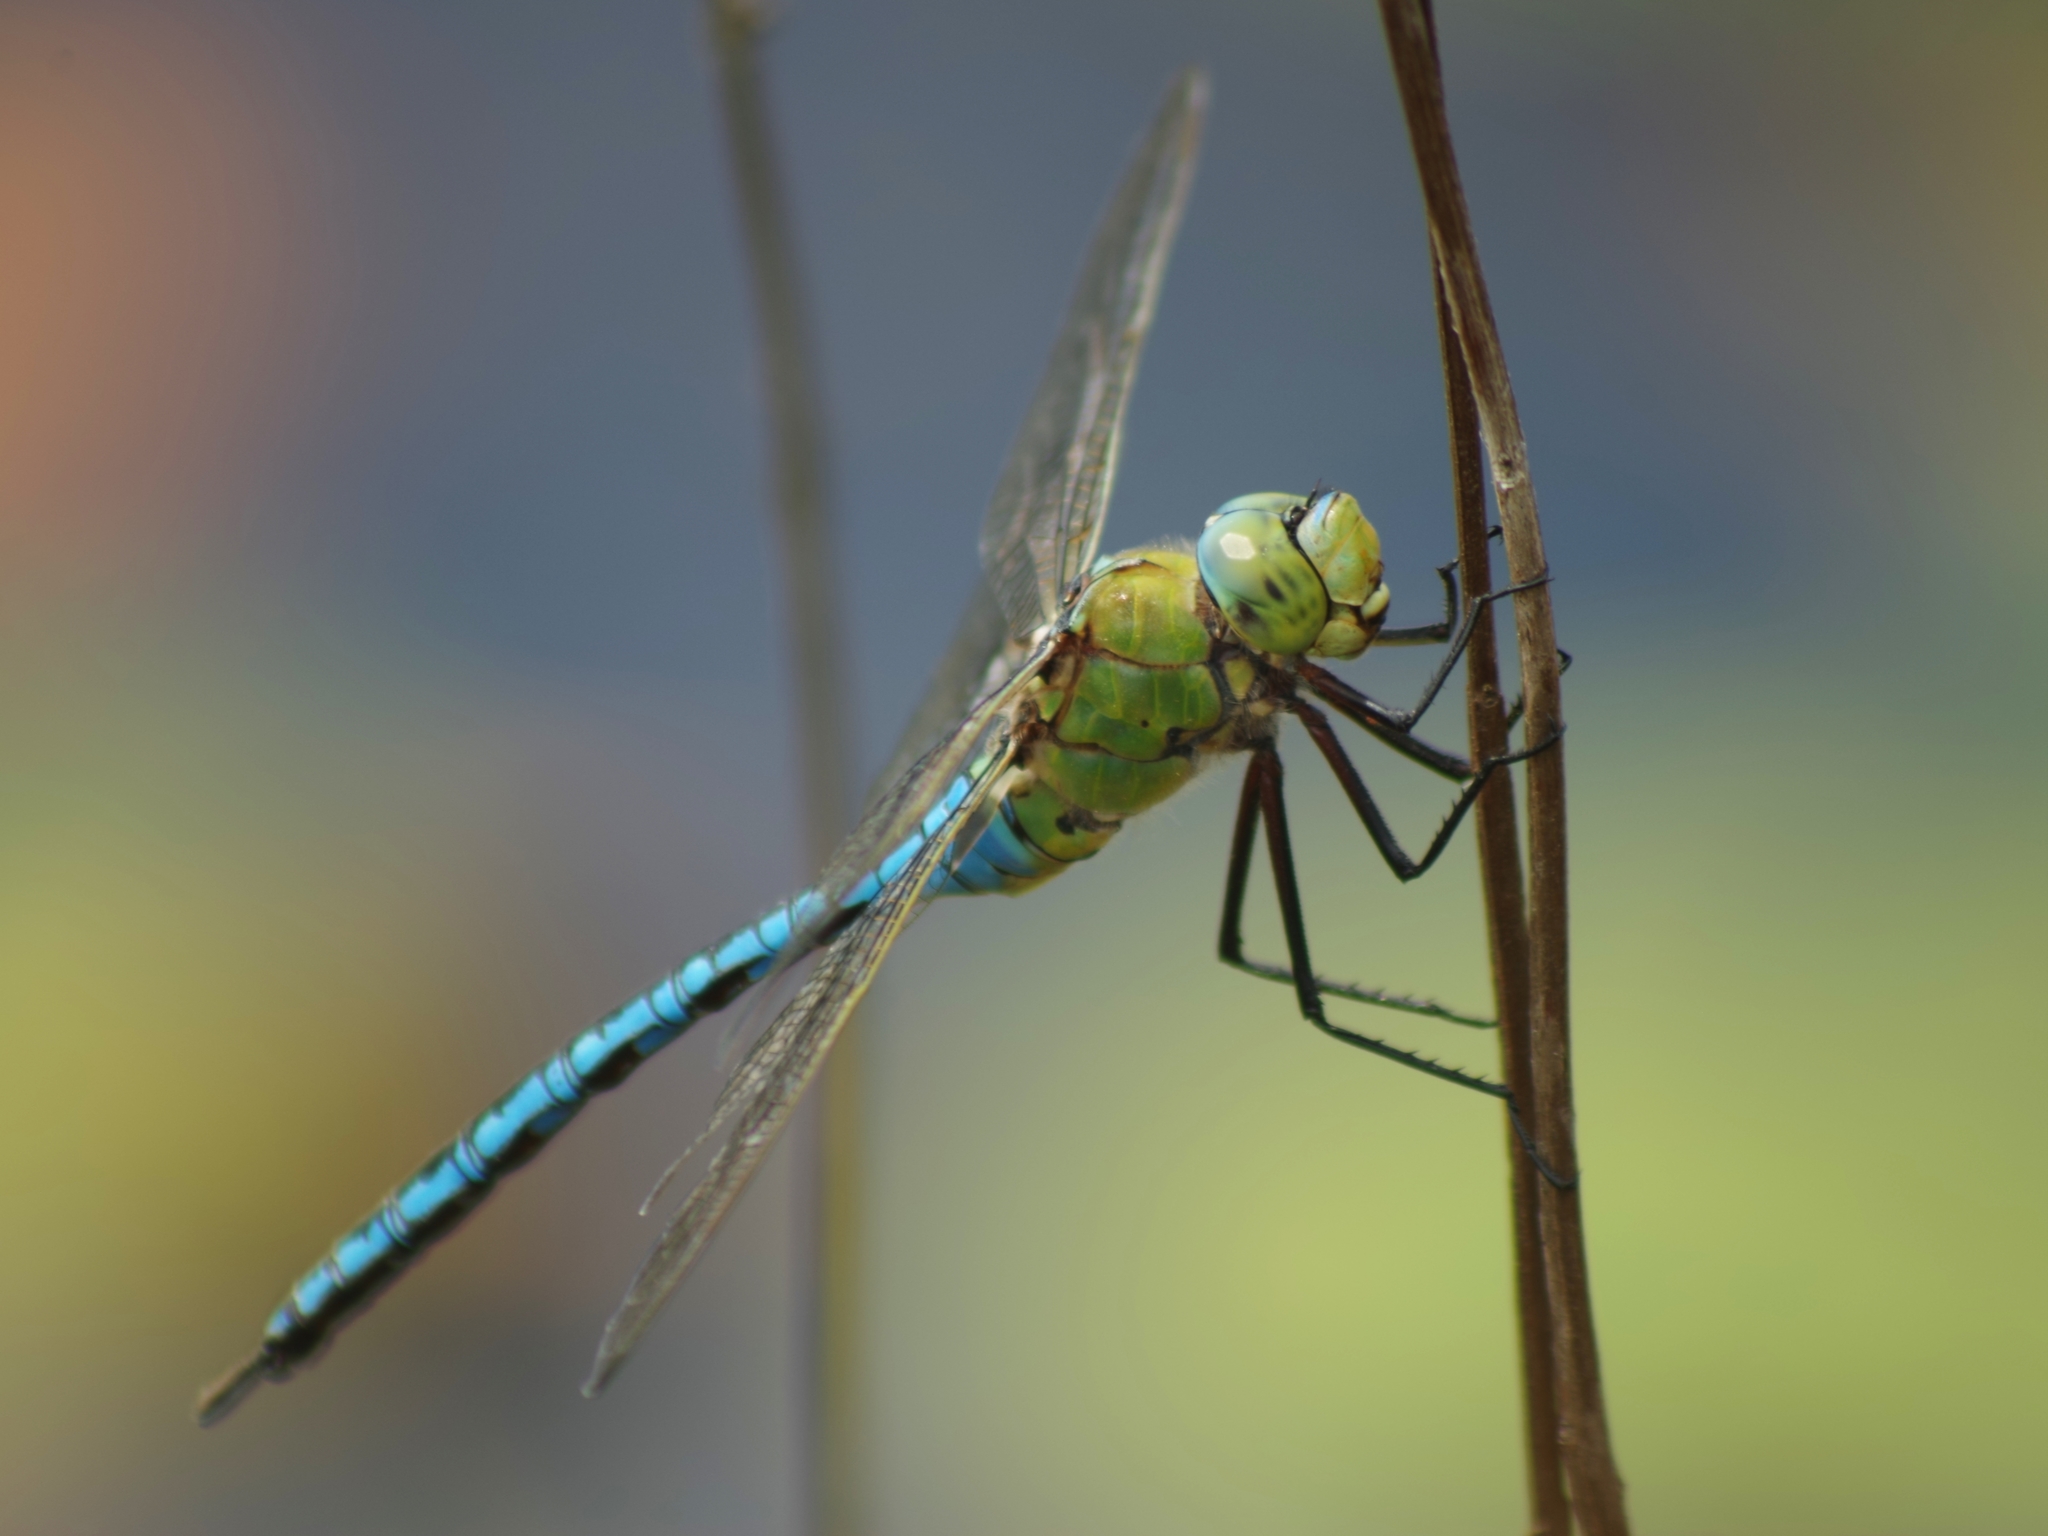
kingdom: Animalia
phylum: Arthropoda
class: Insecta
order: Odonata
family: Aeshnidae
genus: Anax
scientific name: Anax imperator
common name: Emperor dragonfly
